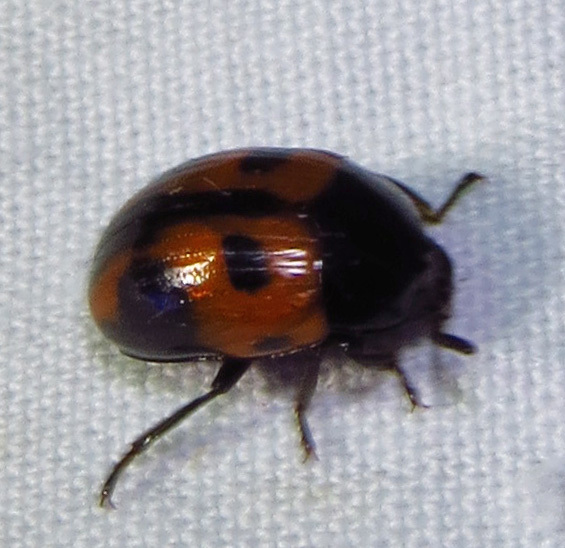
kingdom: Animalia
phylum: Arthropoda
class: Insecta
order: Coleoptera
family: Tenebrionidae
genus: Diaperis
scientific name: Diaperis maculata
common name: Darkling beetle
